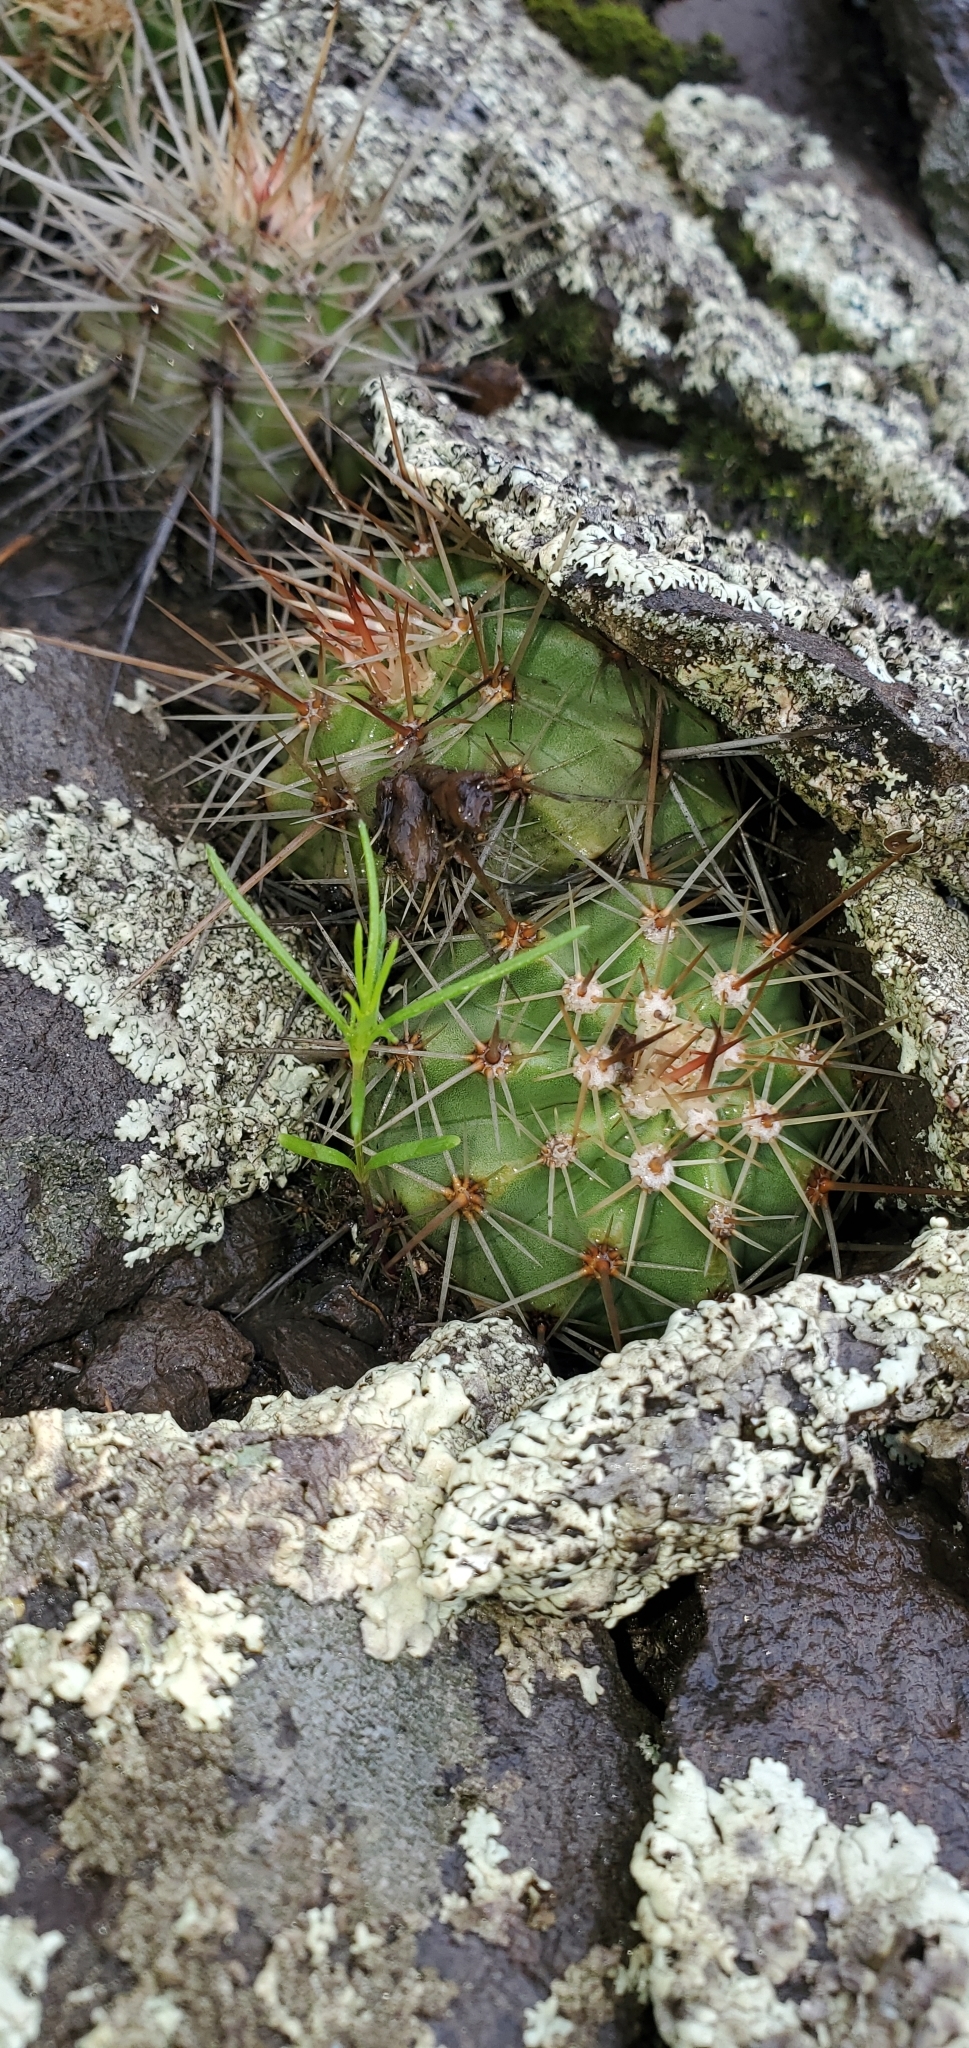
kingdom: Plantae
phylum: Tracheophyta
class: Magnoliopsida
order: Caryophyllales
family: Cactaceae
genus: Echinocereus
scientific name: Echinocereus bakeri
